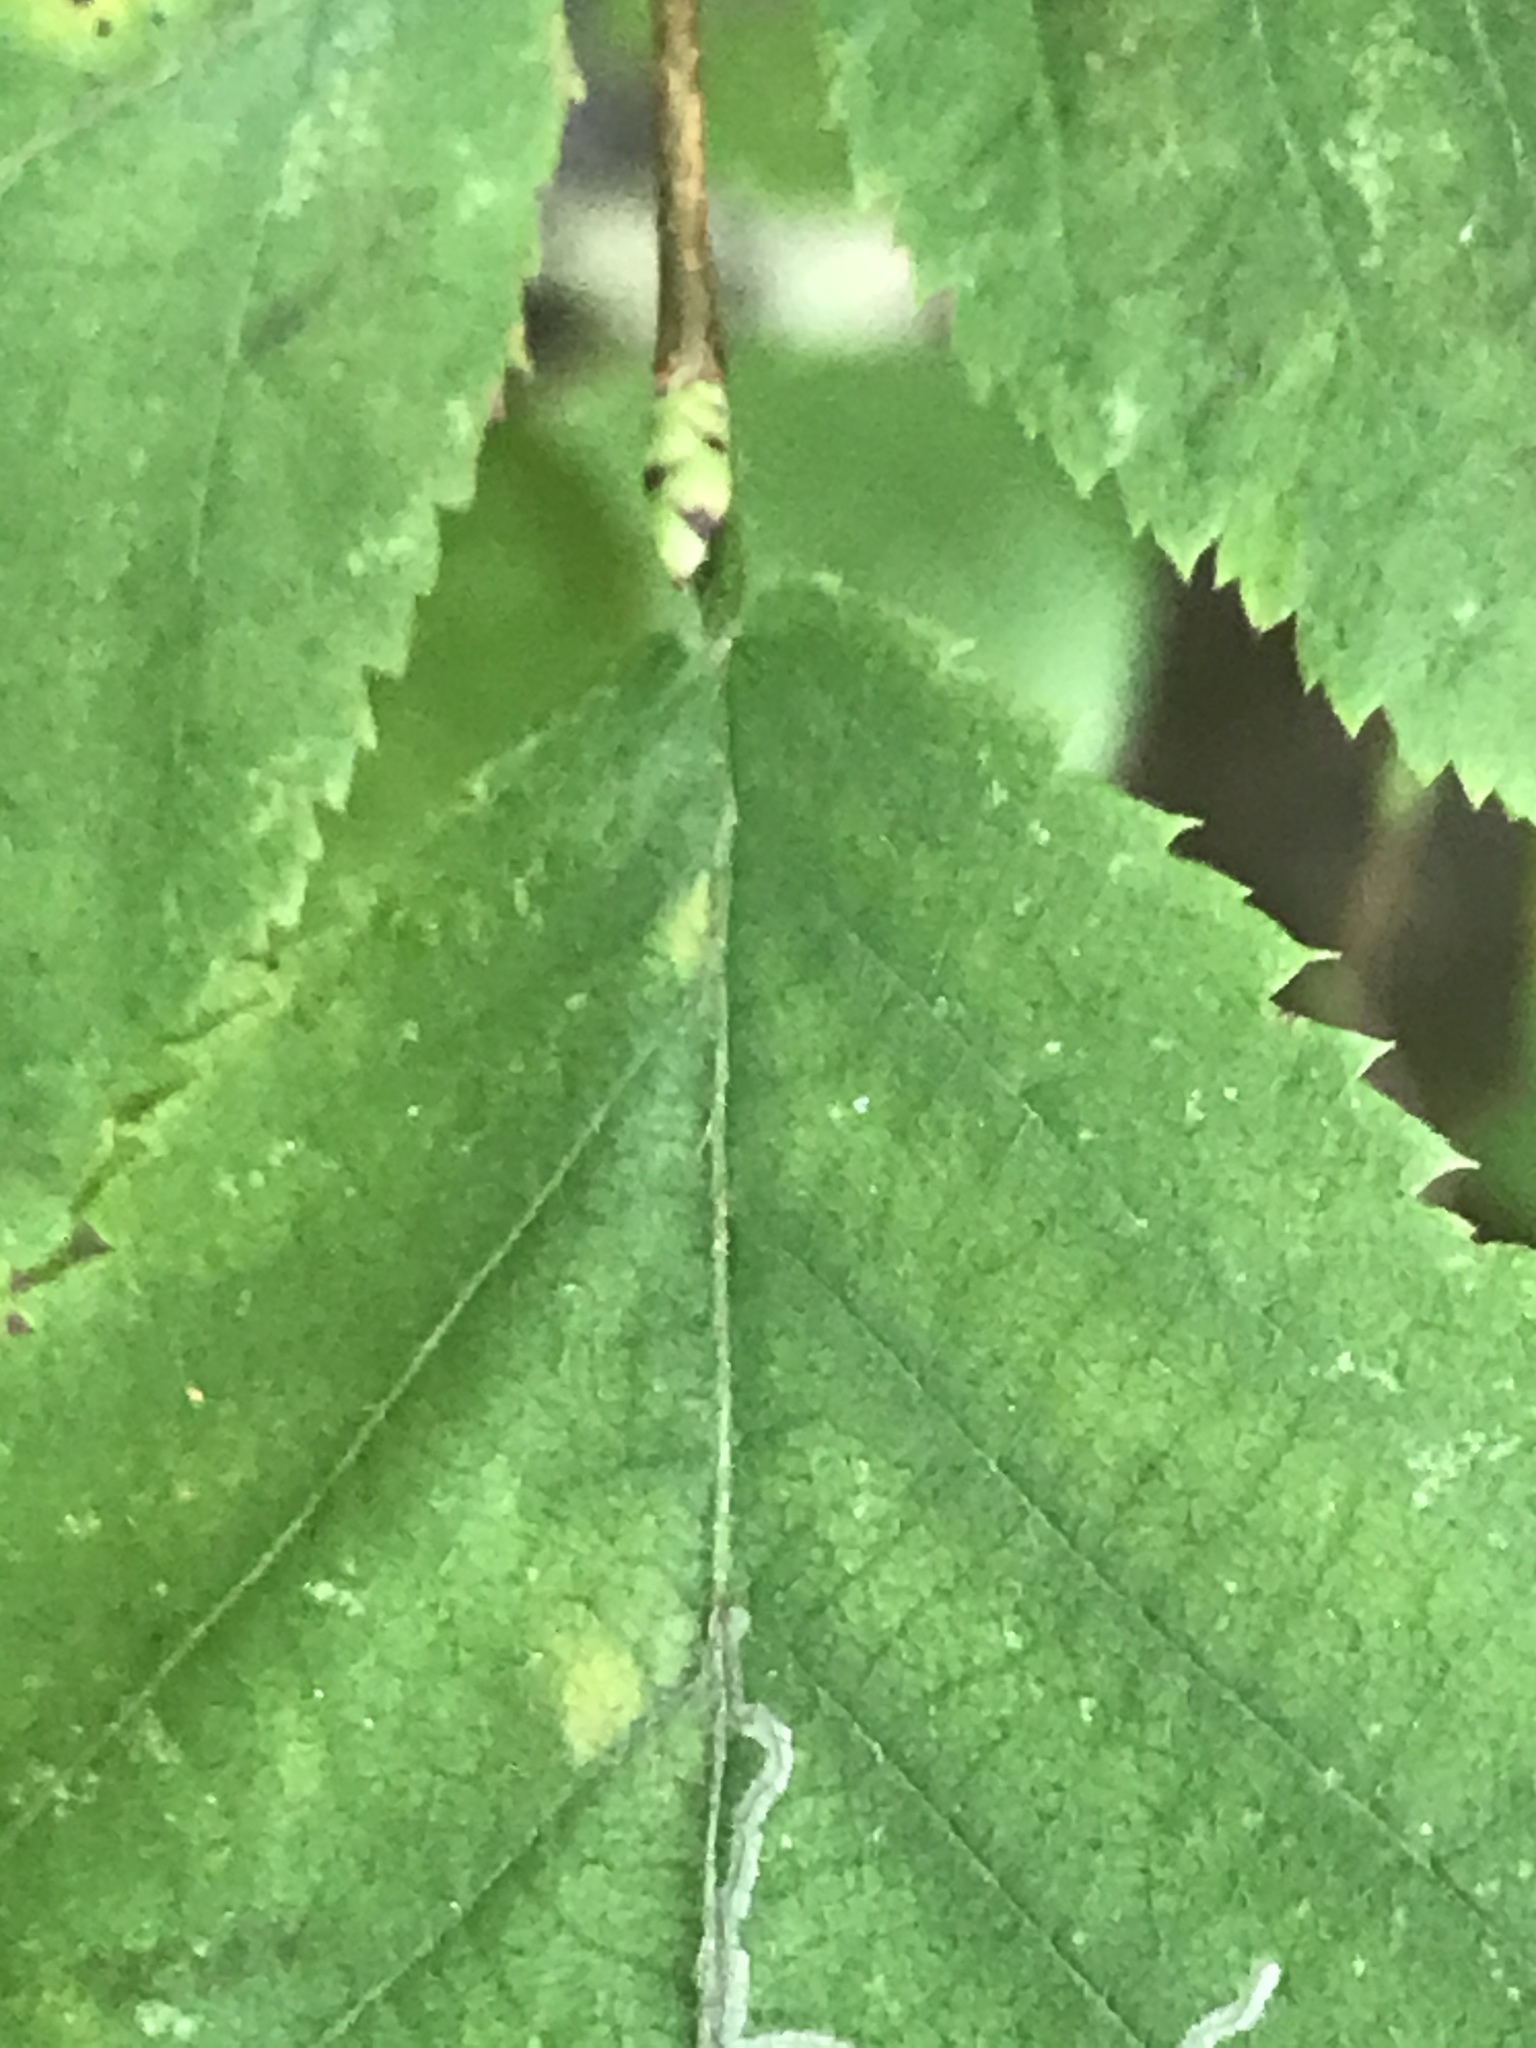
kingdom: Plantae
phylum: Tracheophyta
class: Magnoliopsida
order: Fagales
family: Betulaceae
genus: Ostrya
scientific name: Ostrya virginiana
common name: Ironwood
